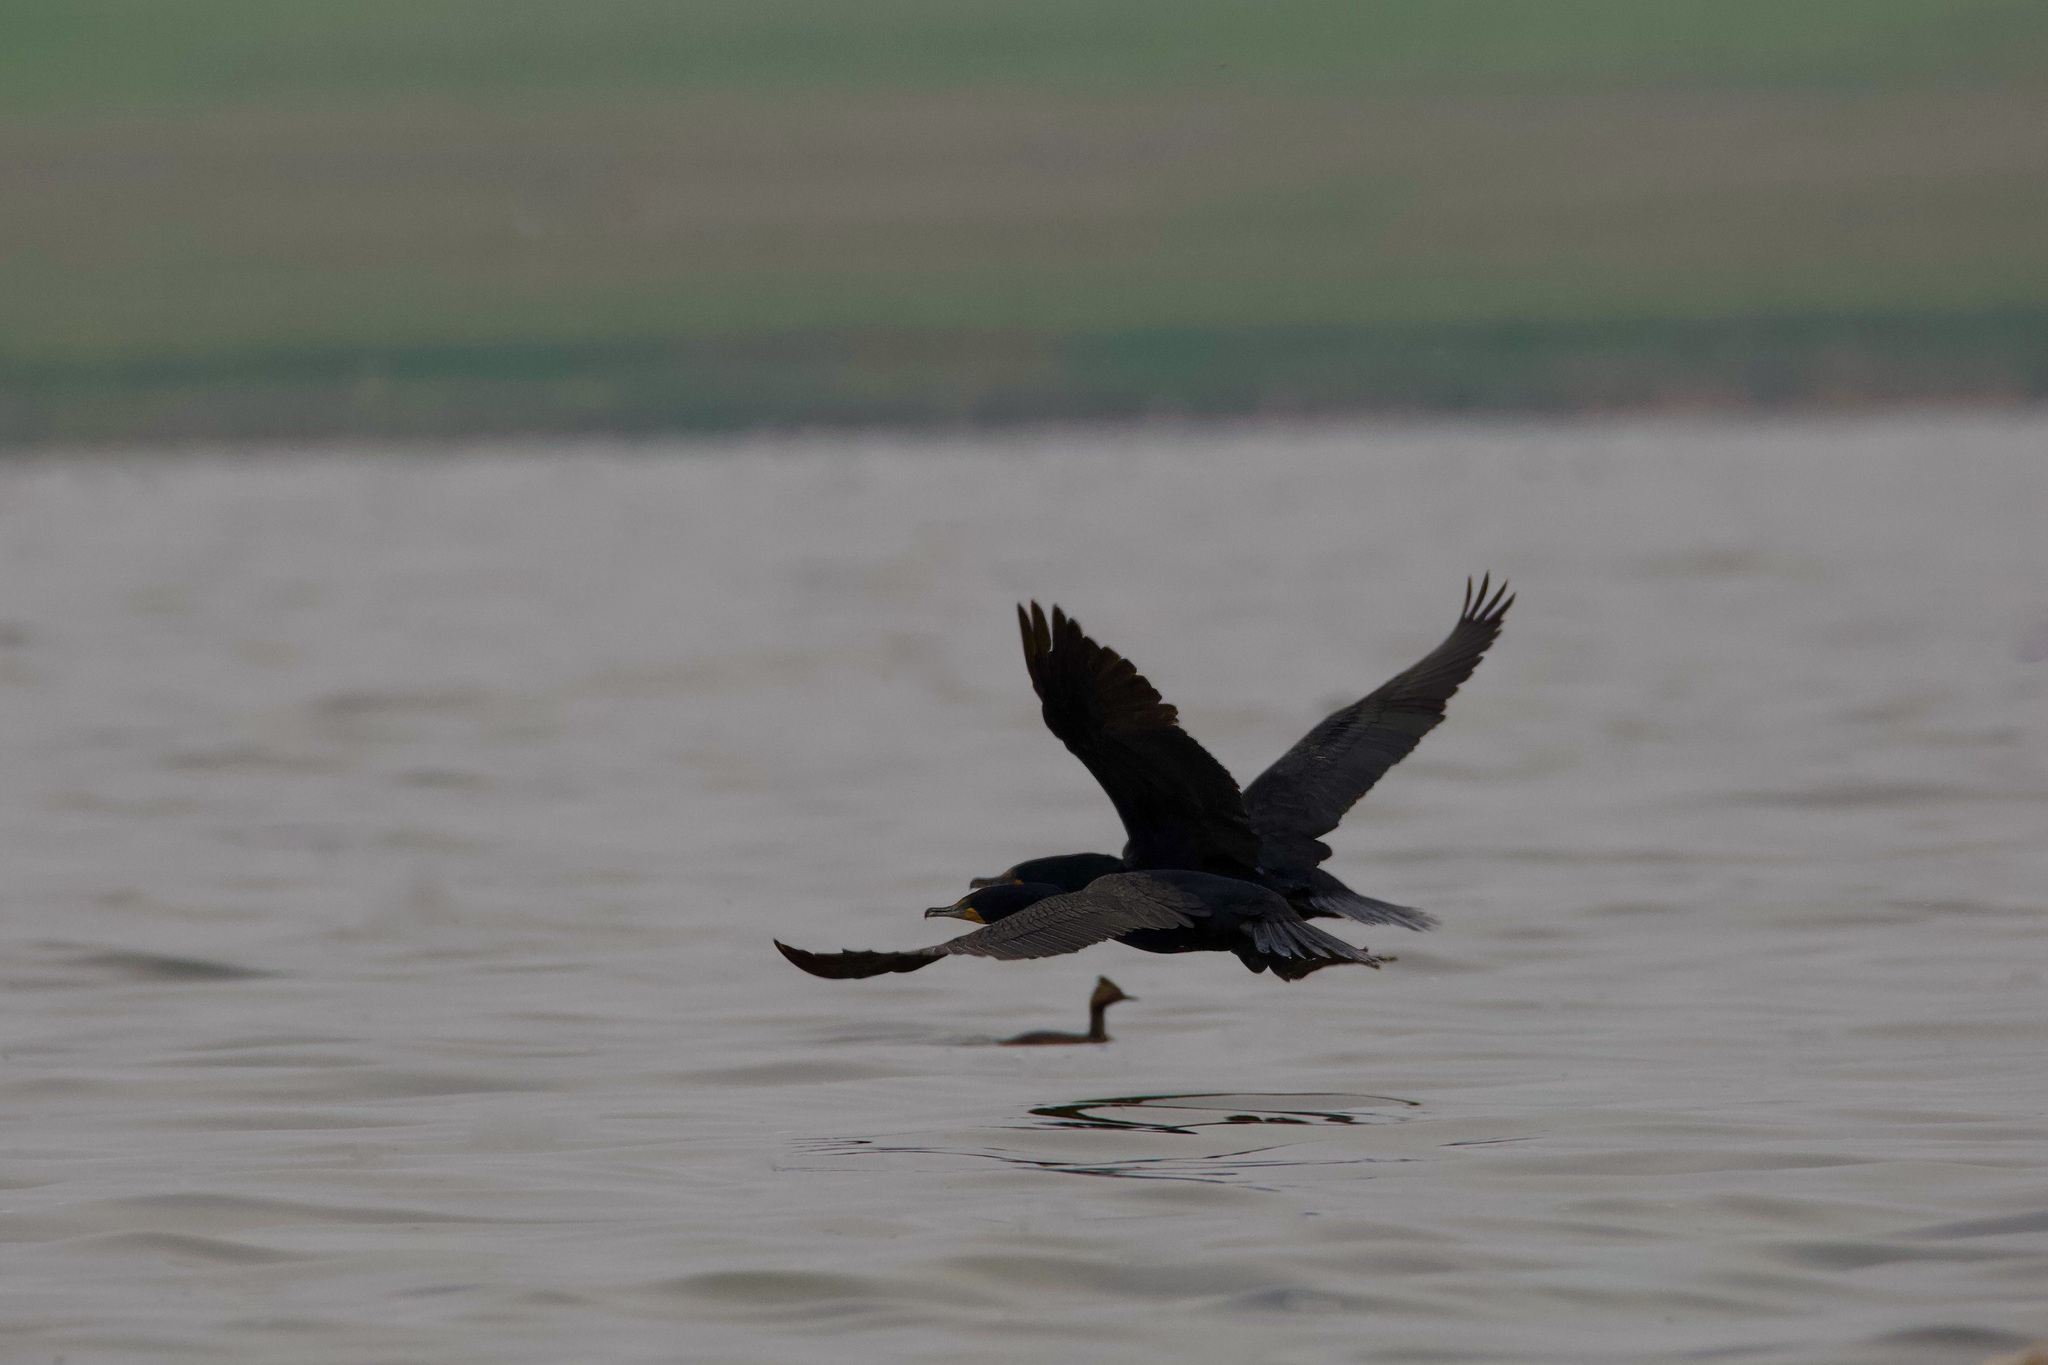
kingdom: Animalia
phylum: Chordata
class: Aves
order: Suliformes
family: Phalacrocoracidae
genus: Phalacrocorax
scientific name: Phalacrocorax auritus
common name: Double-crested cormorant
